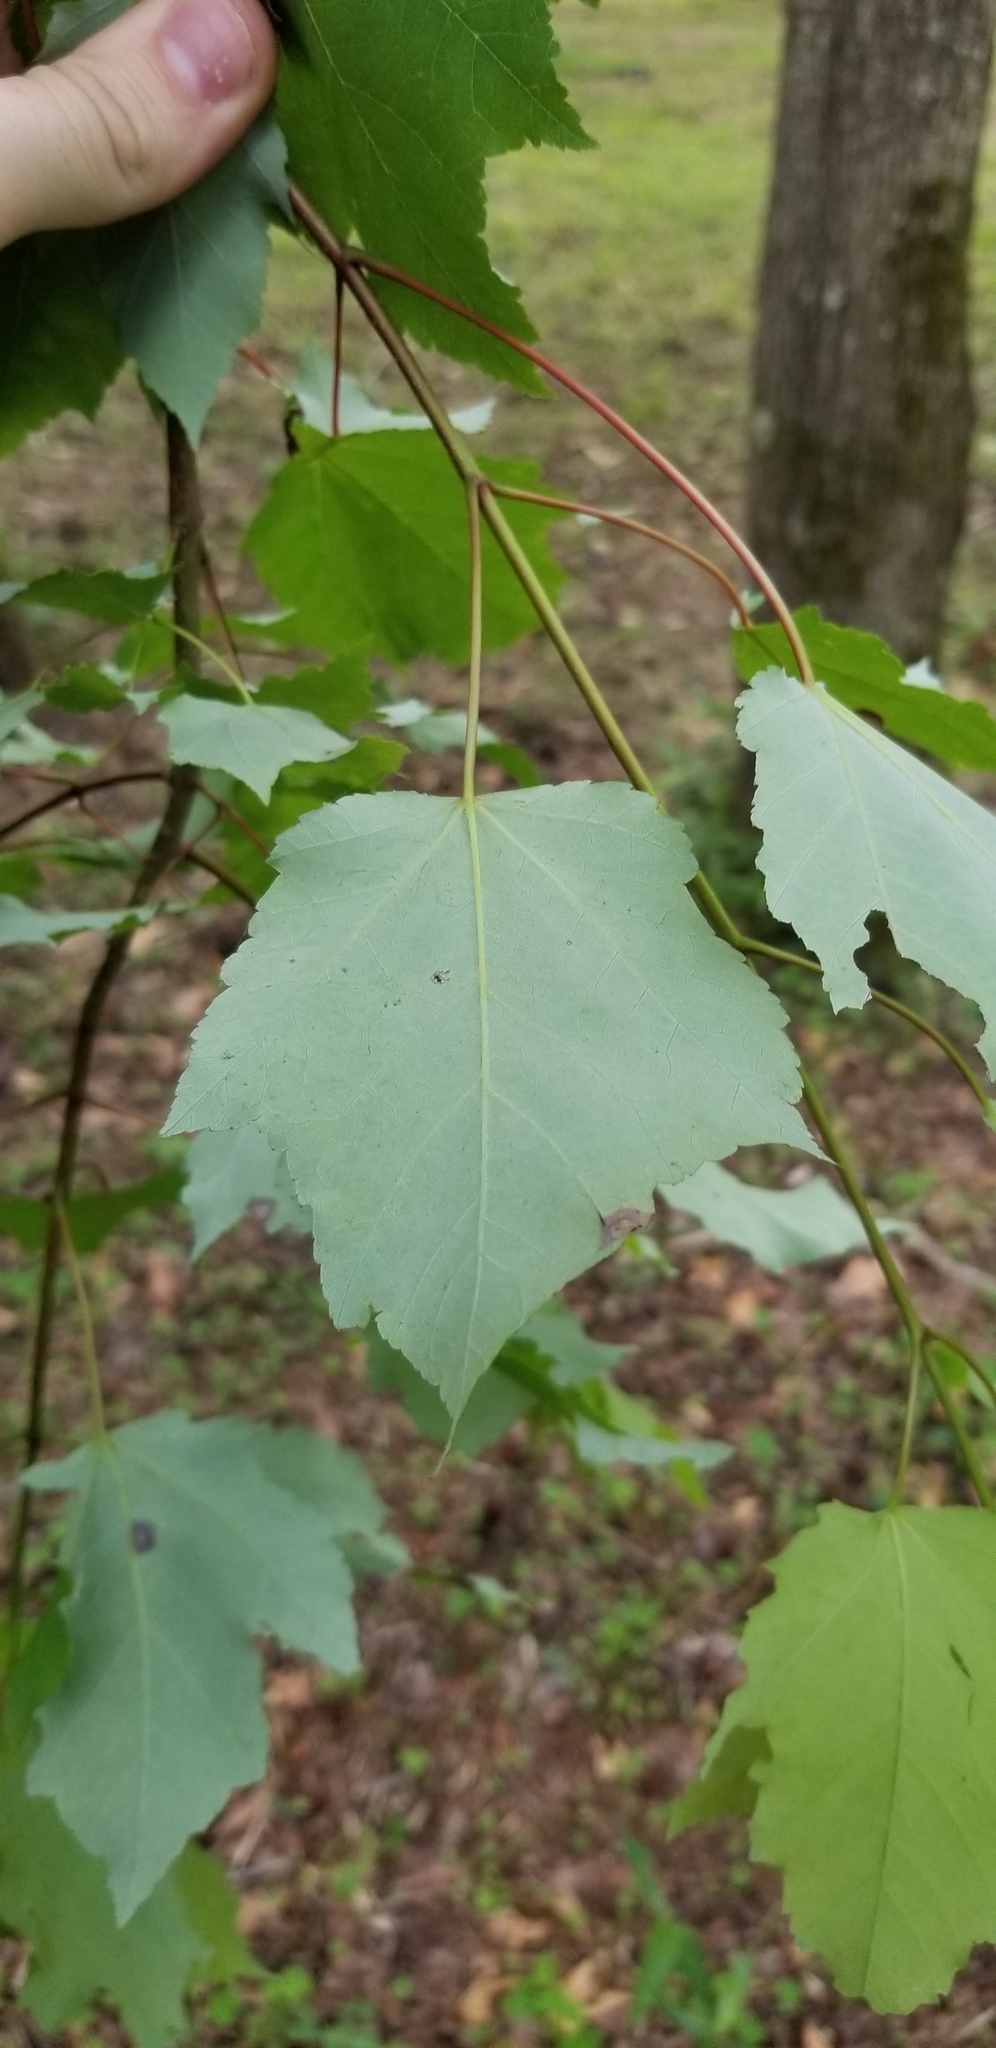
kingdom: Plantae
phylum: Tracheophyta
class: Magnoliopsida
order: Sapindales
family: Sapindaceae
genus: Acer
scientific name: Acer rubrum
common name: Red maple
